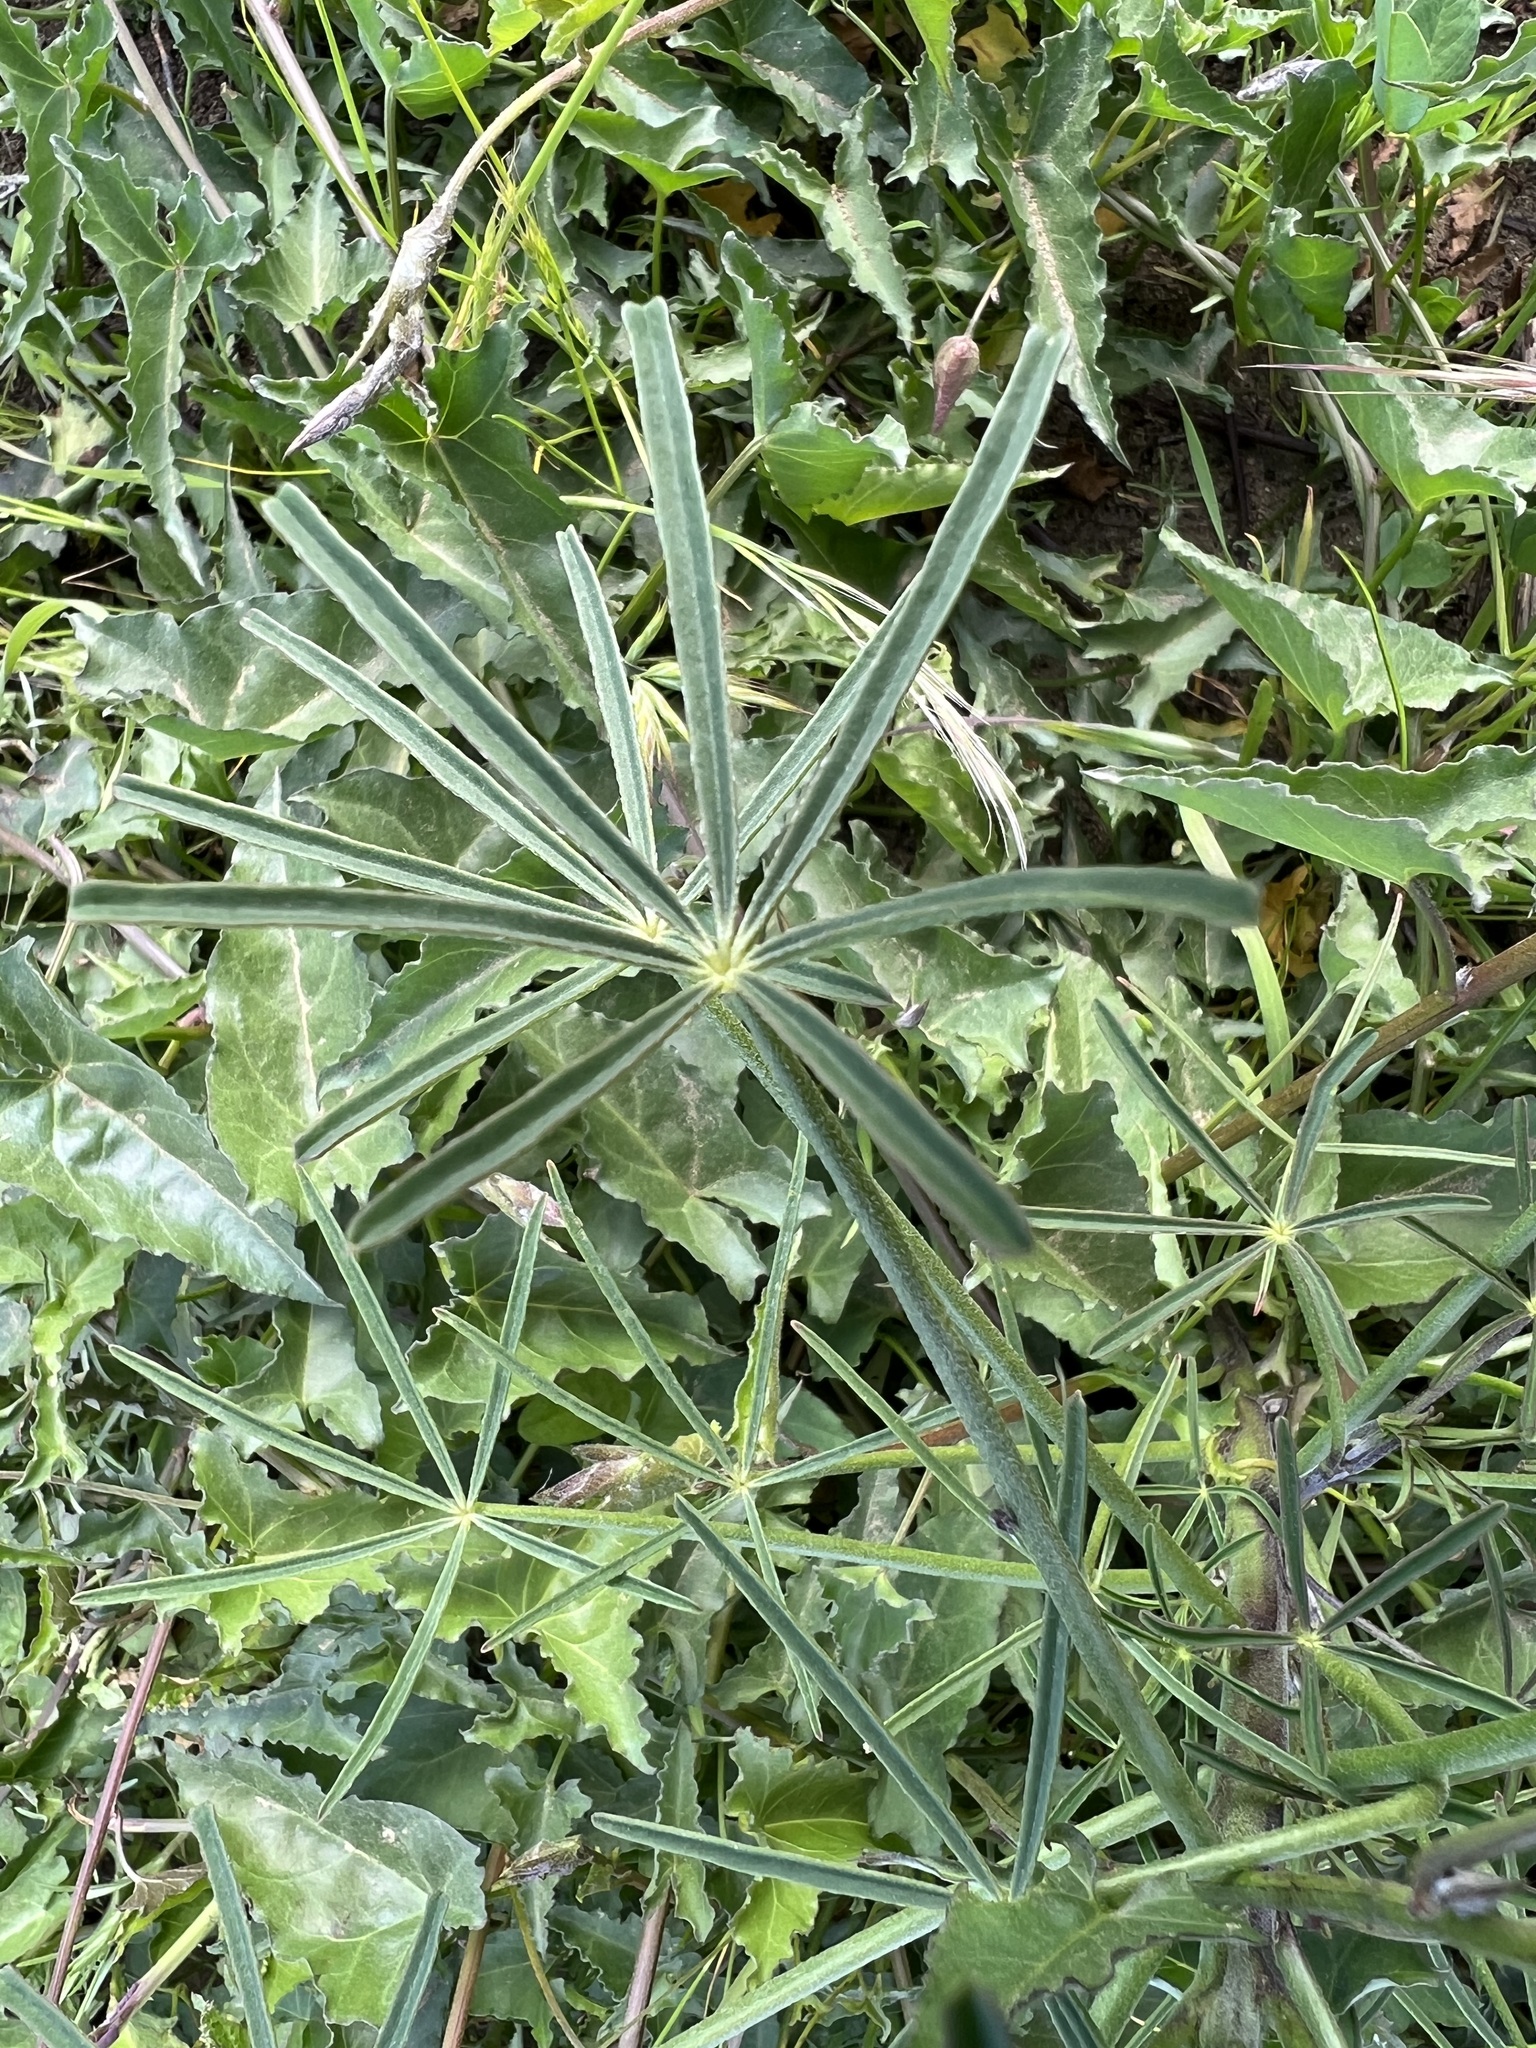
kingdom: Plantae
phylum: Tracheophyta
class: Magnoliopsida
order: Fabales
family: Fabaceae
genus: Lupinus
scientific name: Lupinus truncatus
